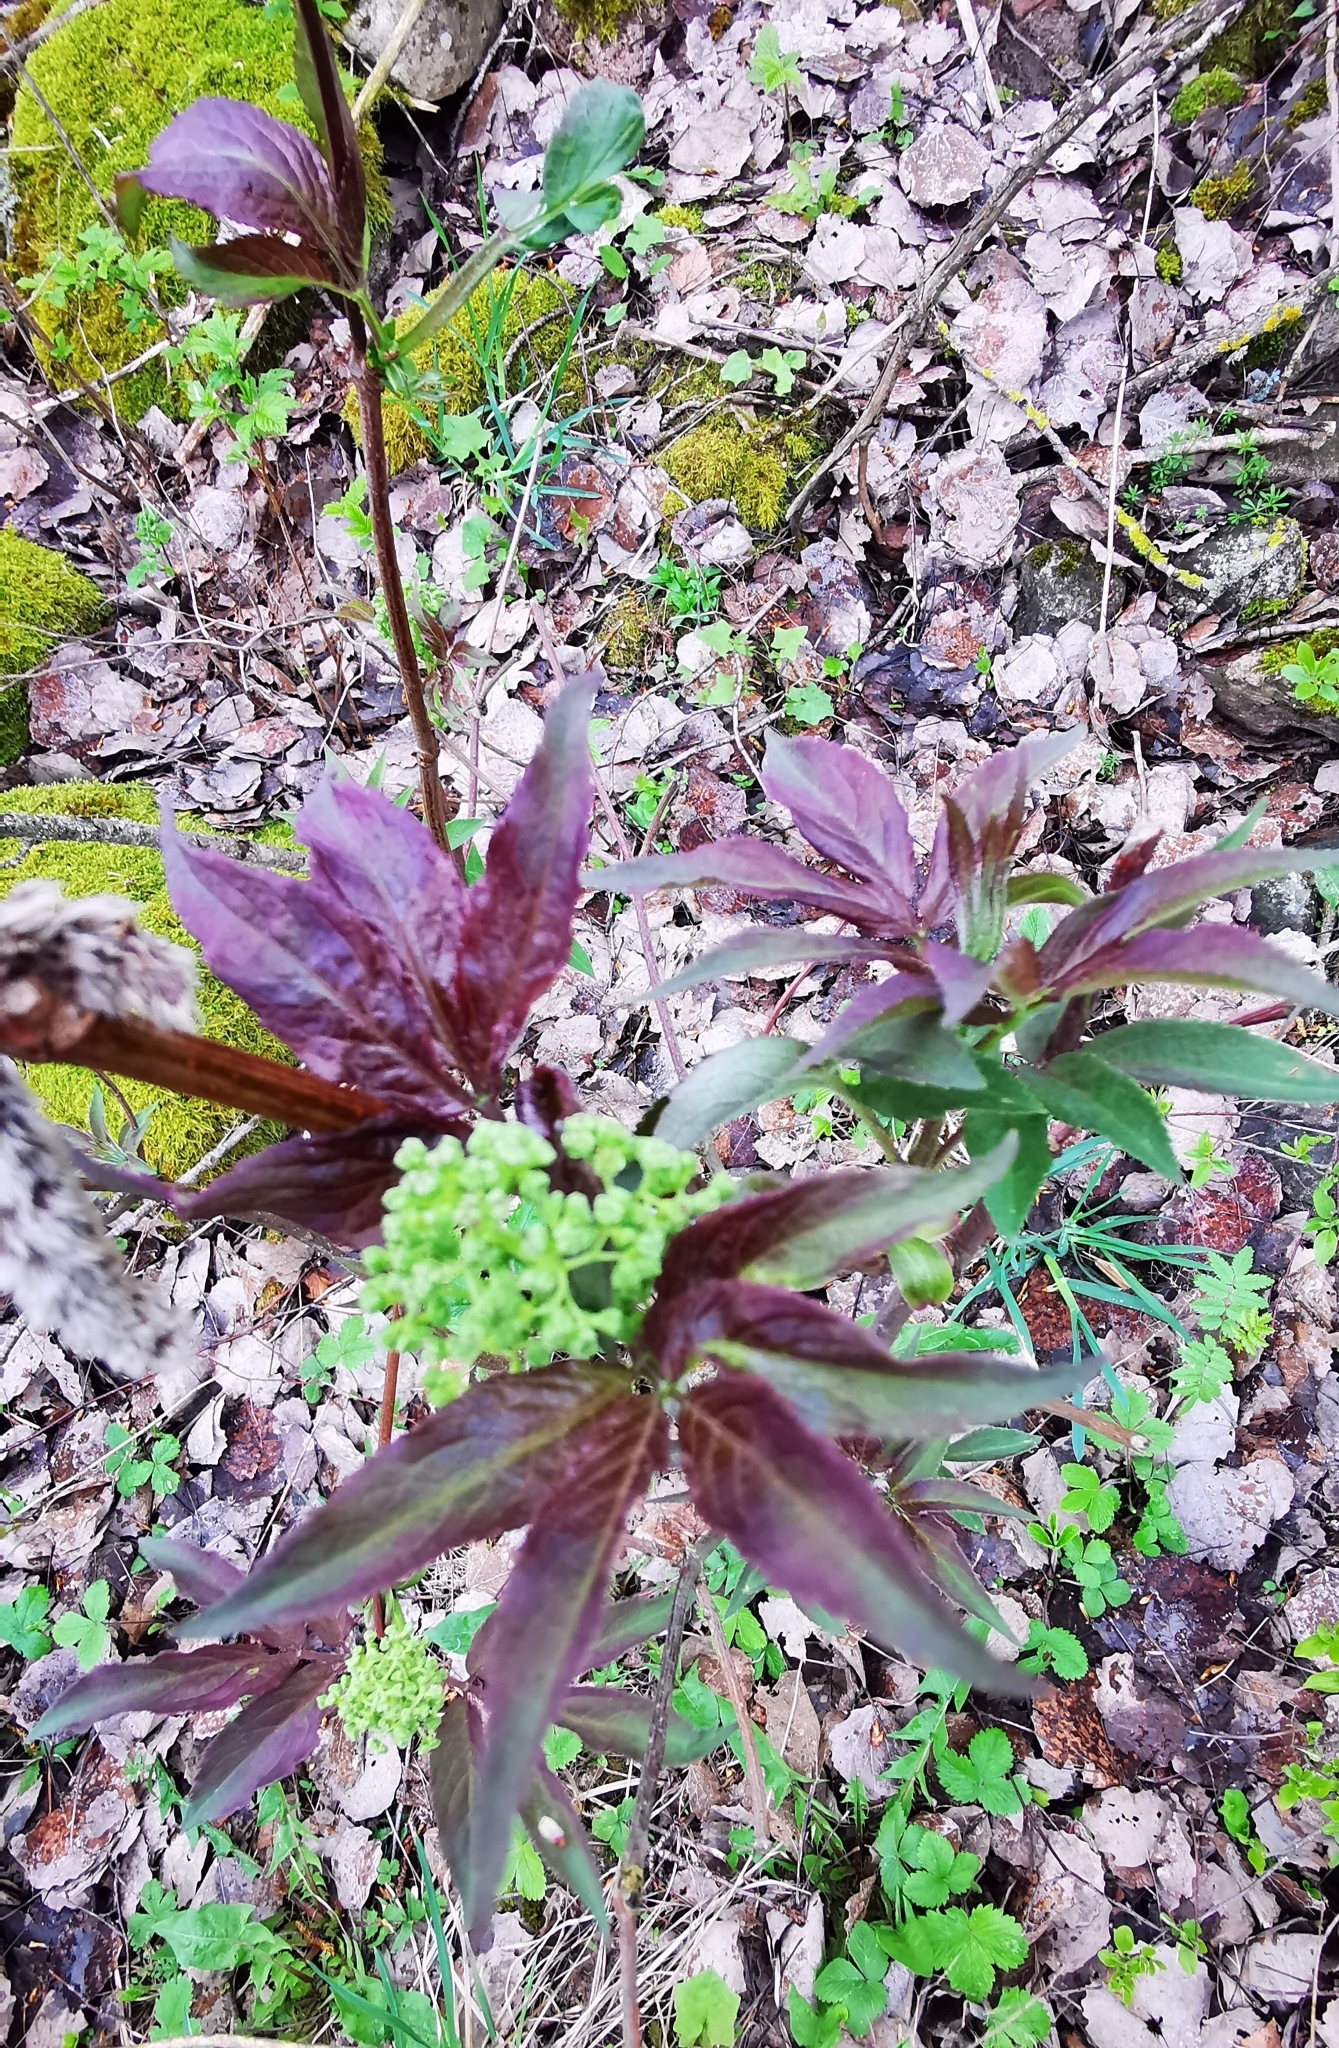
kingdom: Plantae
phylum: Tracheophyta
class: Magnoliopsida
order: Dipsacales
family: Viburnaceae
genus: Sambucus
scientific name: Sambucus racemosa
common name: Red-berried elder
